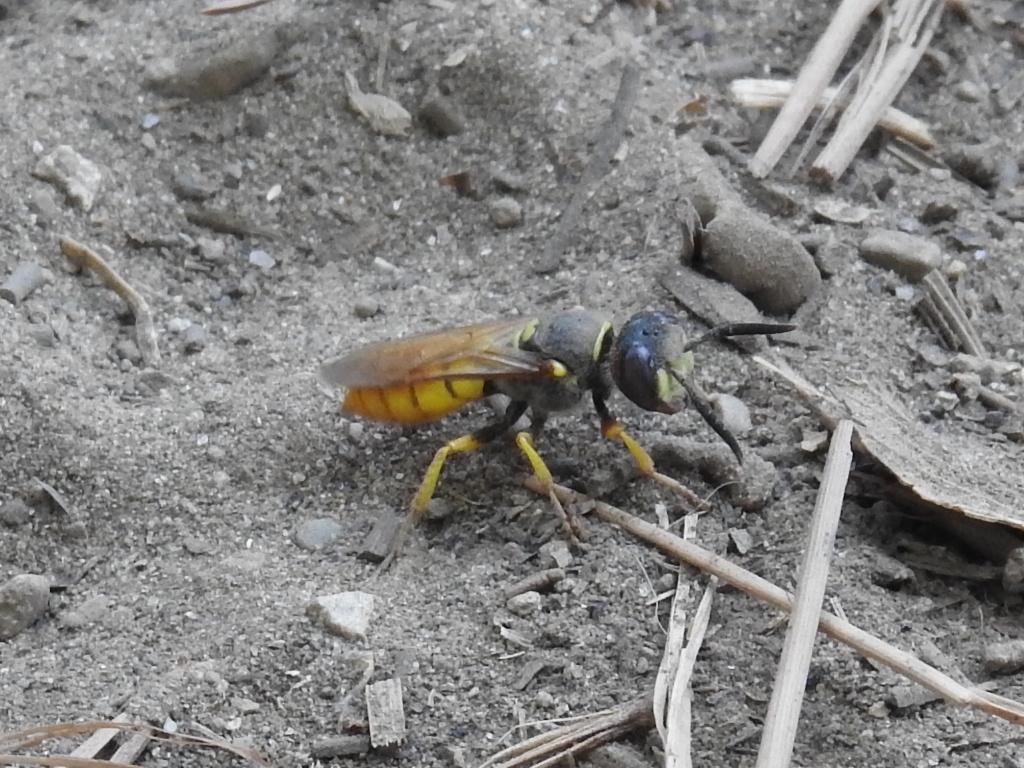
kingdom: Animalia
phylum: Arthropoda
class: Insecta
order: Hymenoptera
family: Crabronidae
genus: Philanthus
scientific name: Philanthus triangulum
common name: Bee wolf
